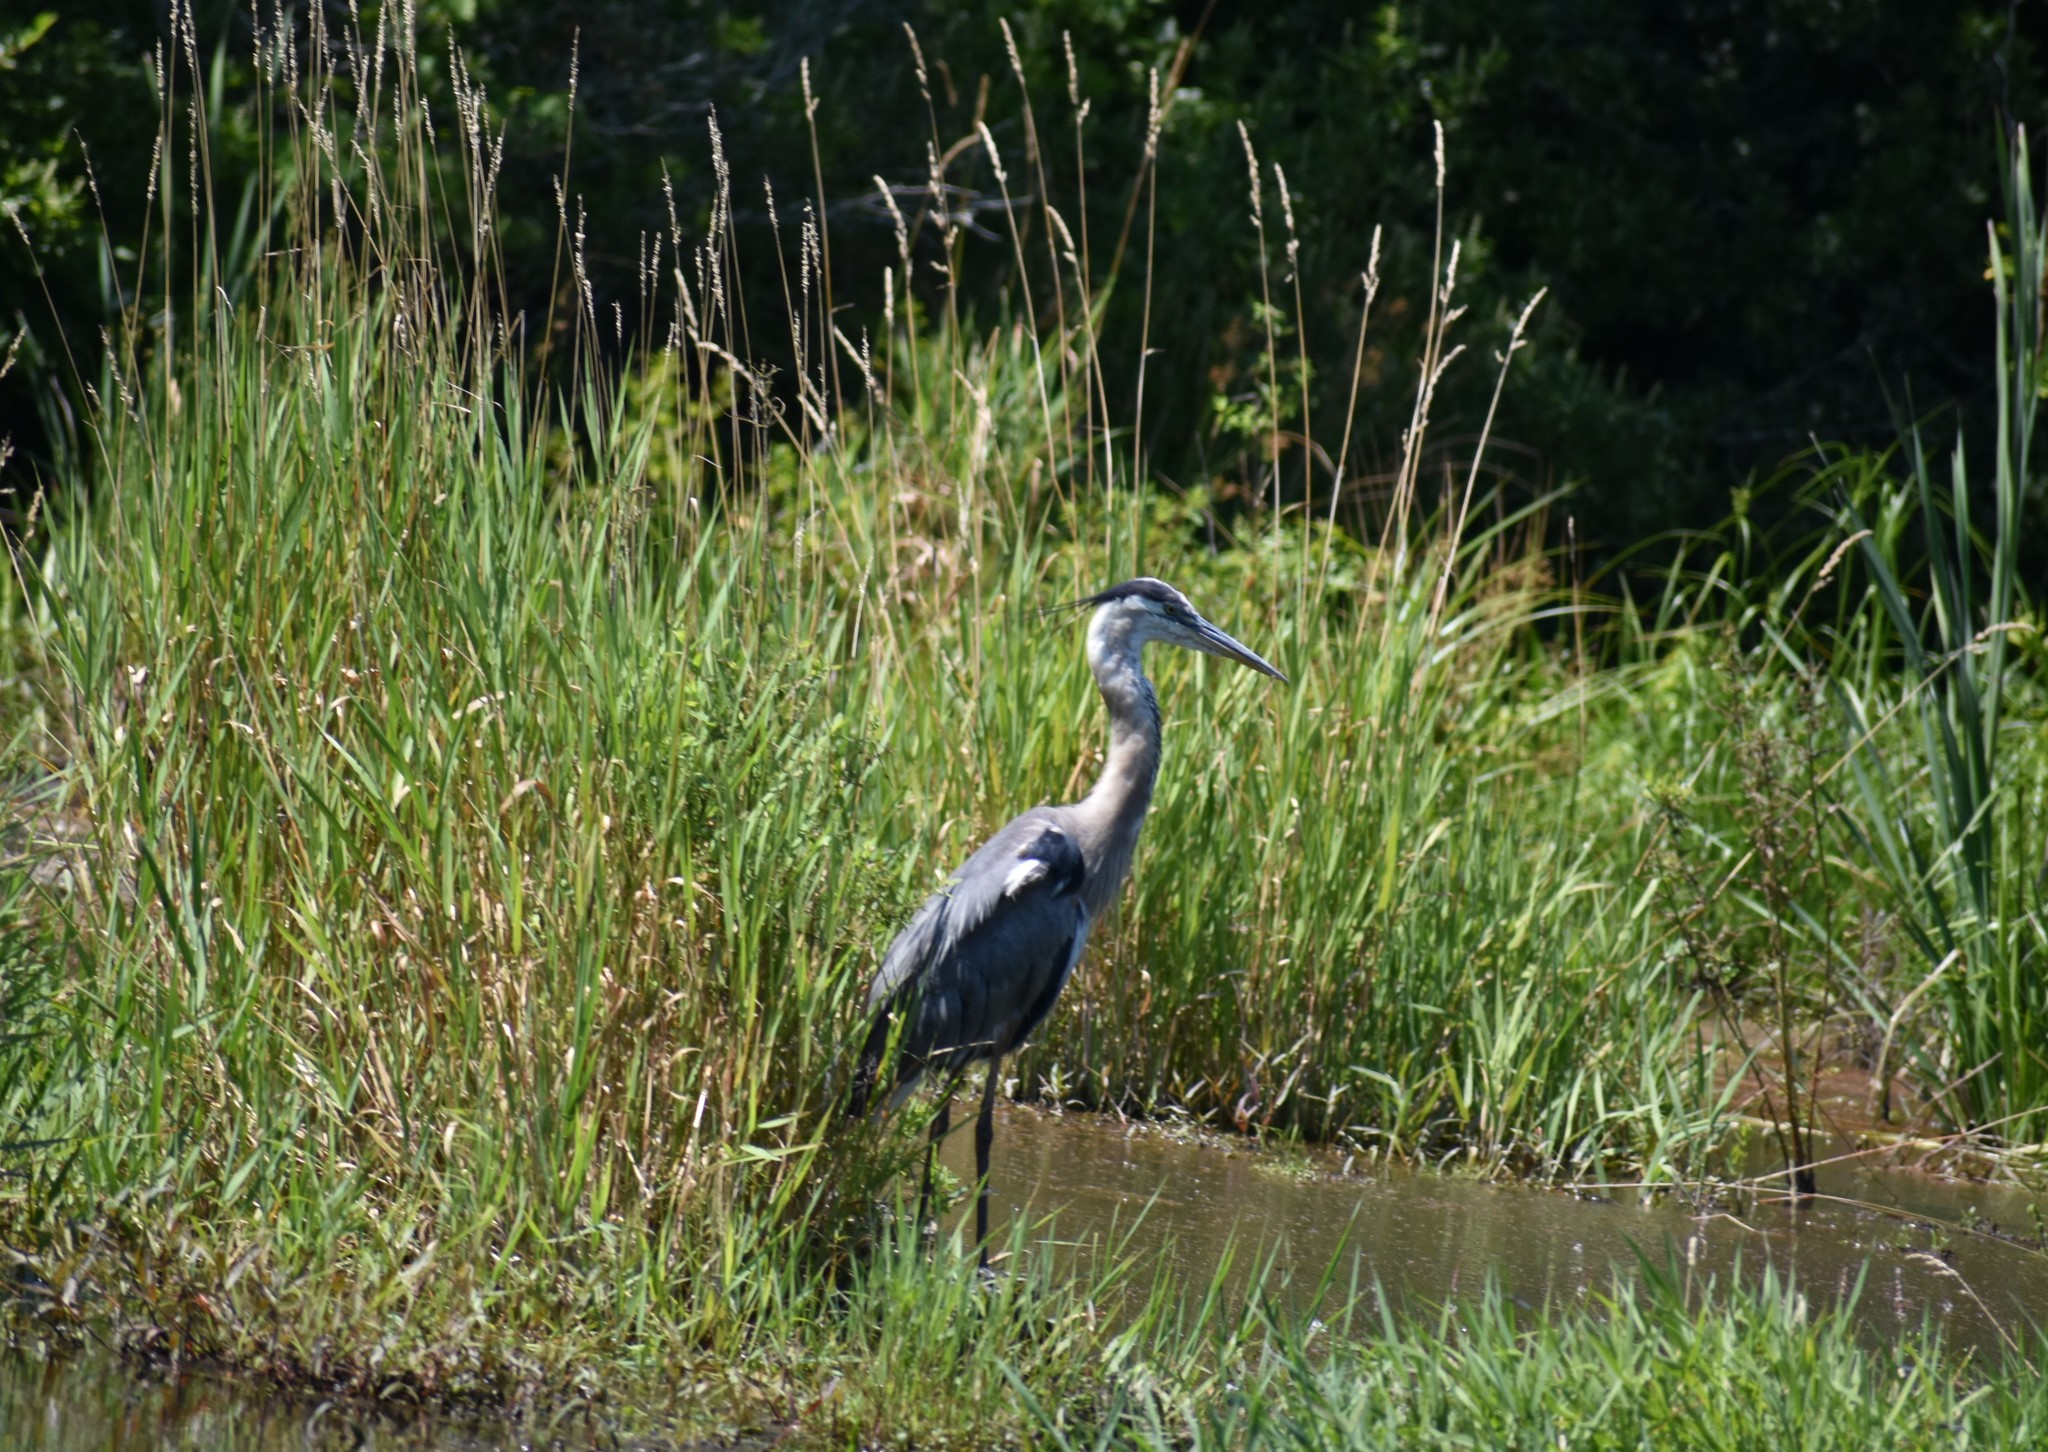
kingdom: Animalia
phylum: Chordata
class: Aves
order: Pelecaniformes
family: Ardeidae
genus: Ardea
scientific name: Ardea herodias
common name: Great blue heron
